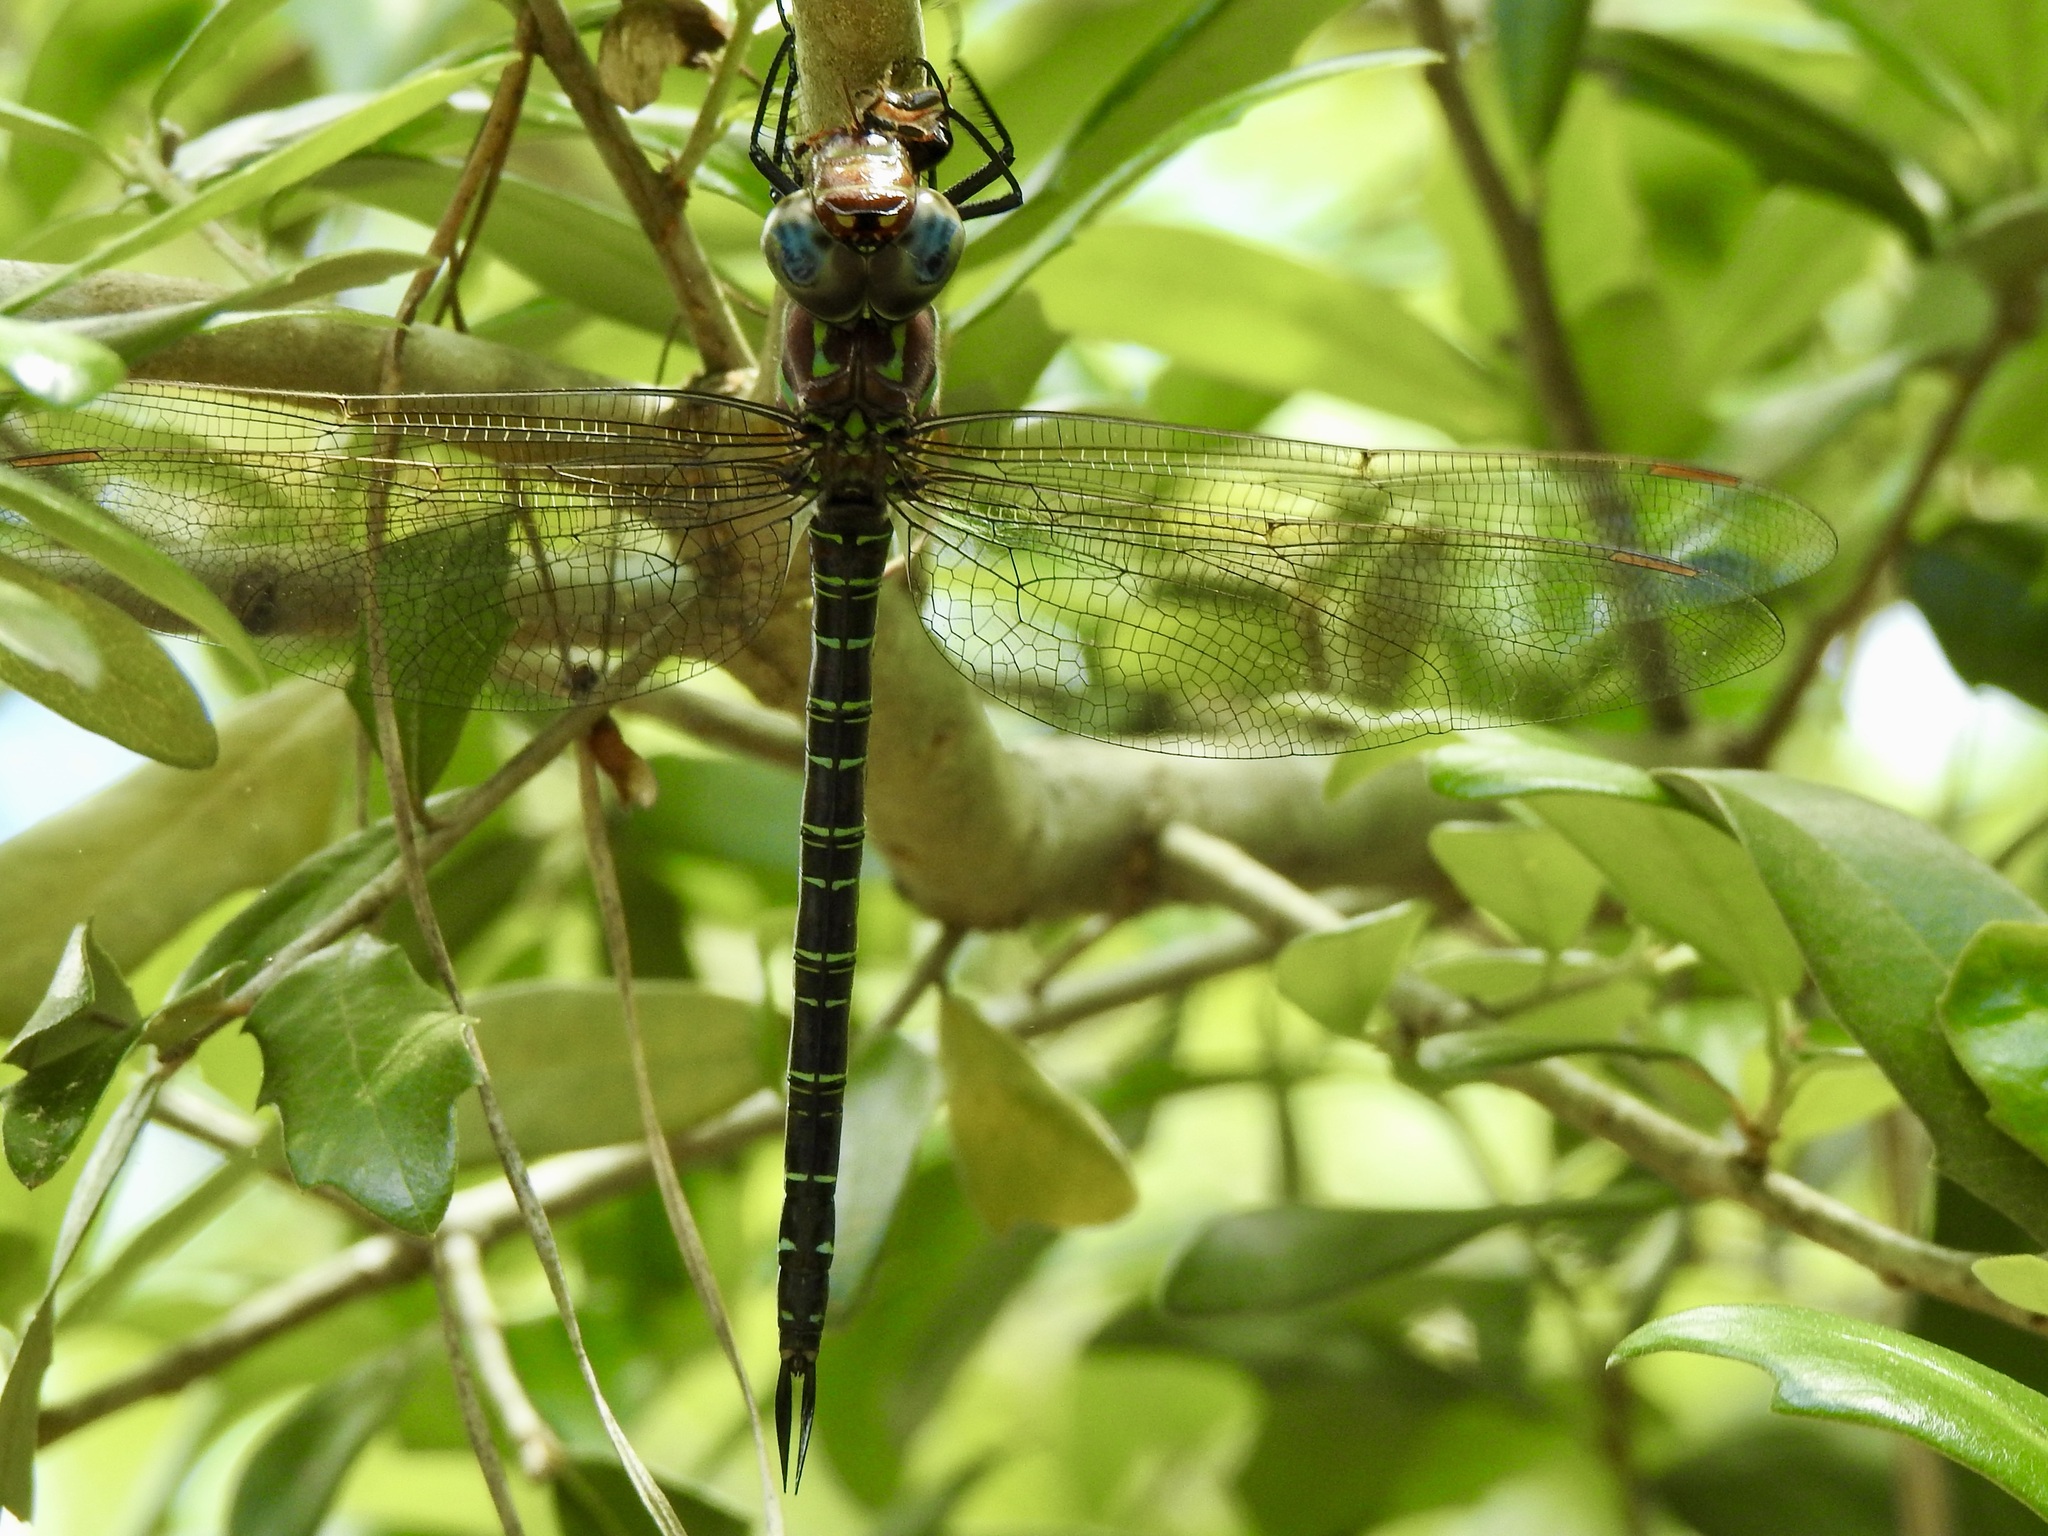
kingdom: Animalia
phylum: Arthropoda
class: Insecta
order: Odonata
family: Aeshnidae
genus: Epiaeschna
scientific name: Epiaeschna heros
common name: Swamp darner
